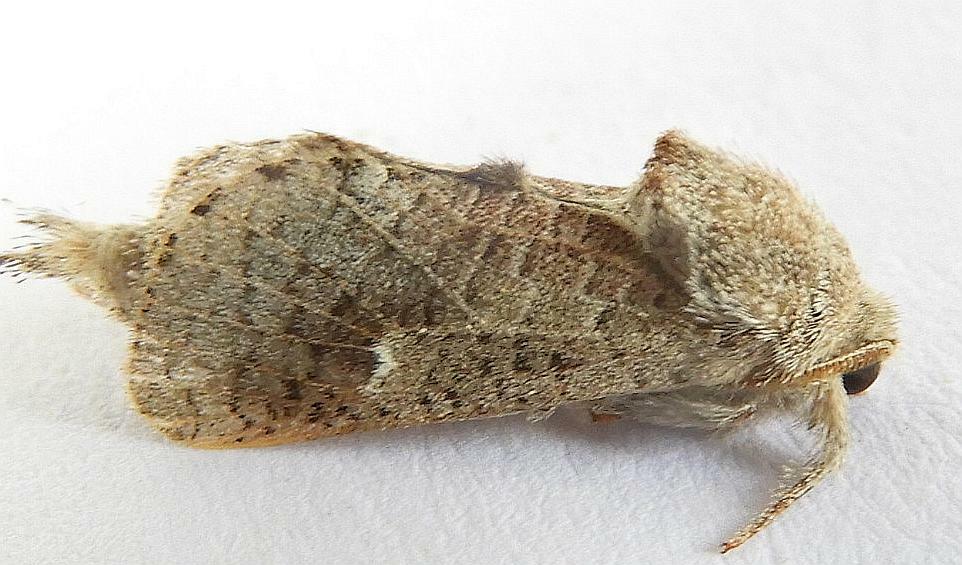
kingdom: Animalia
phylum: Arthropoda
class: Insecta
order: Lepidoptera
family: Cossidae
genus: Givira
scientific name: Givira anna
